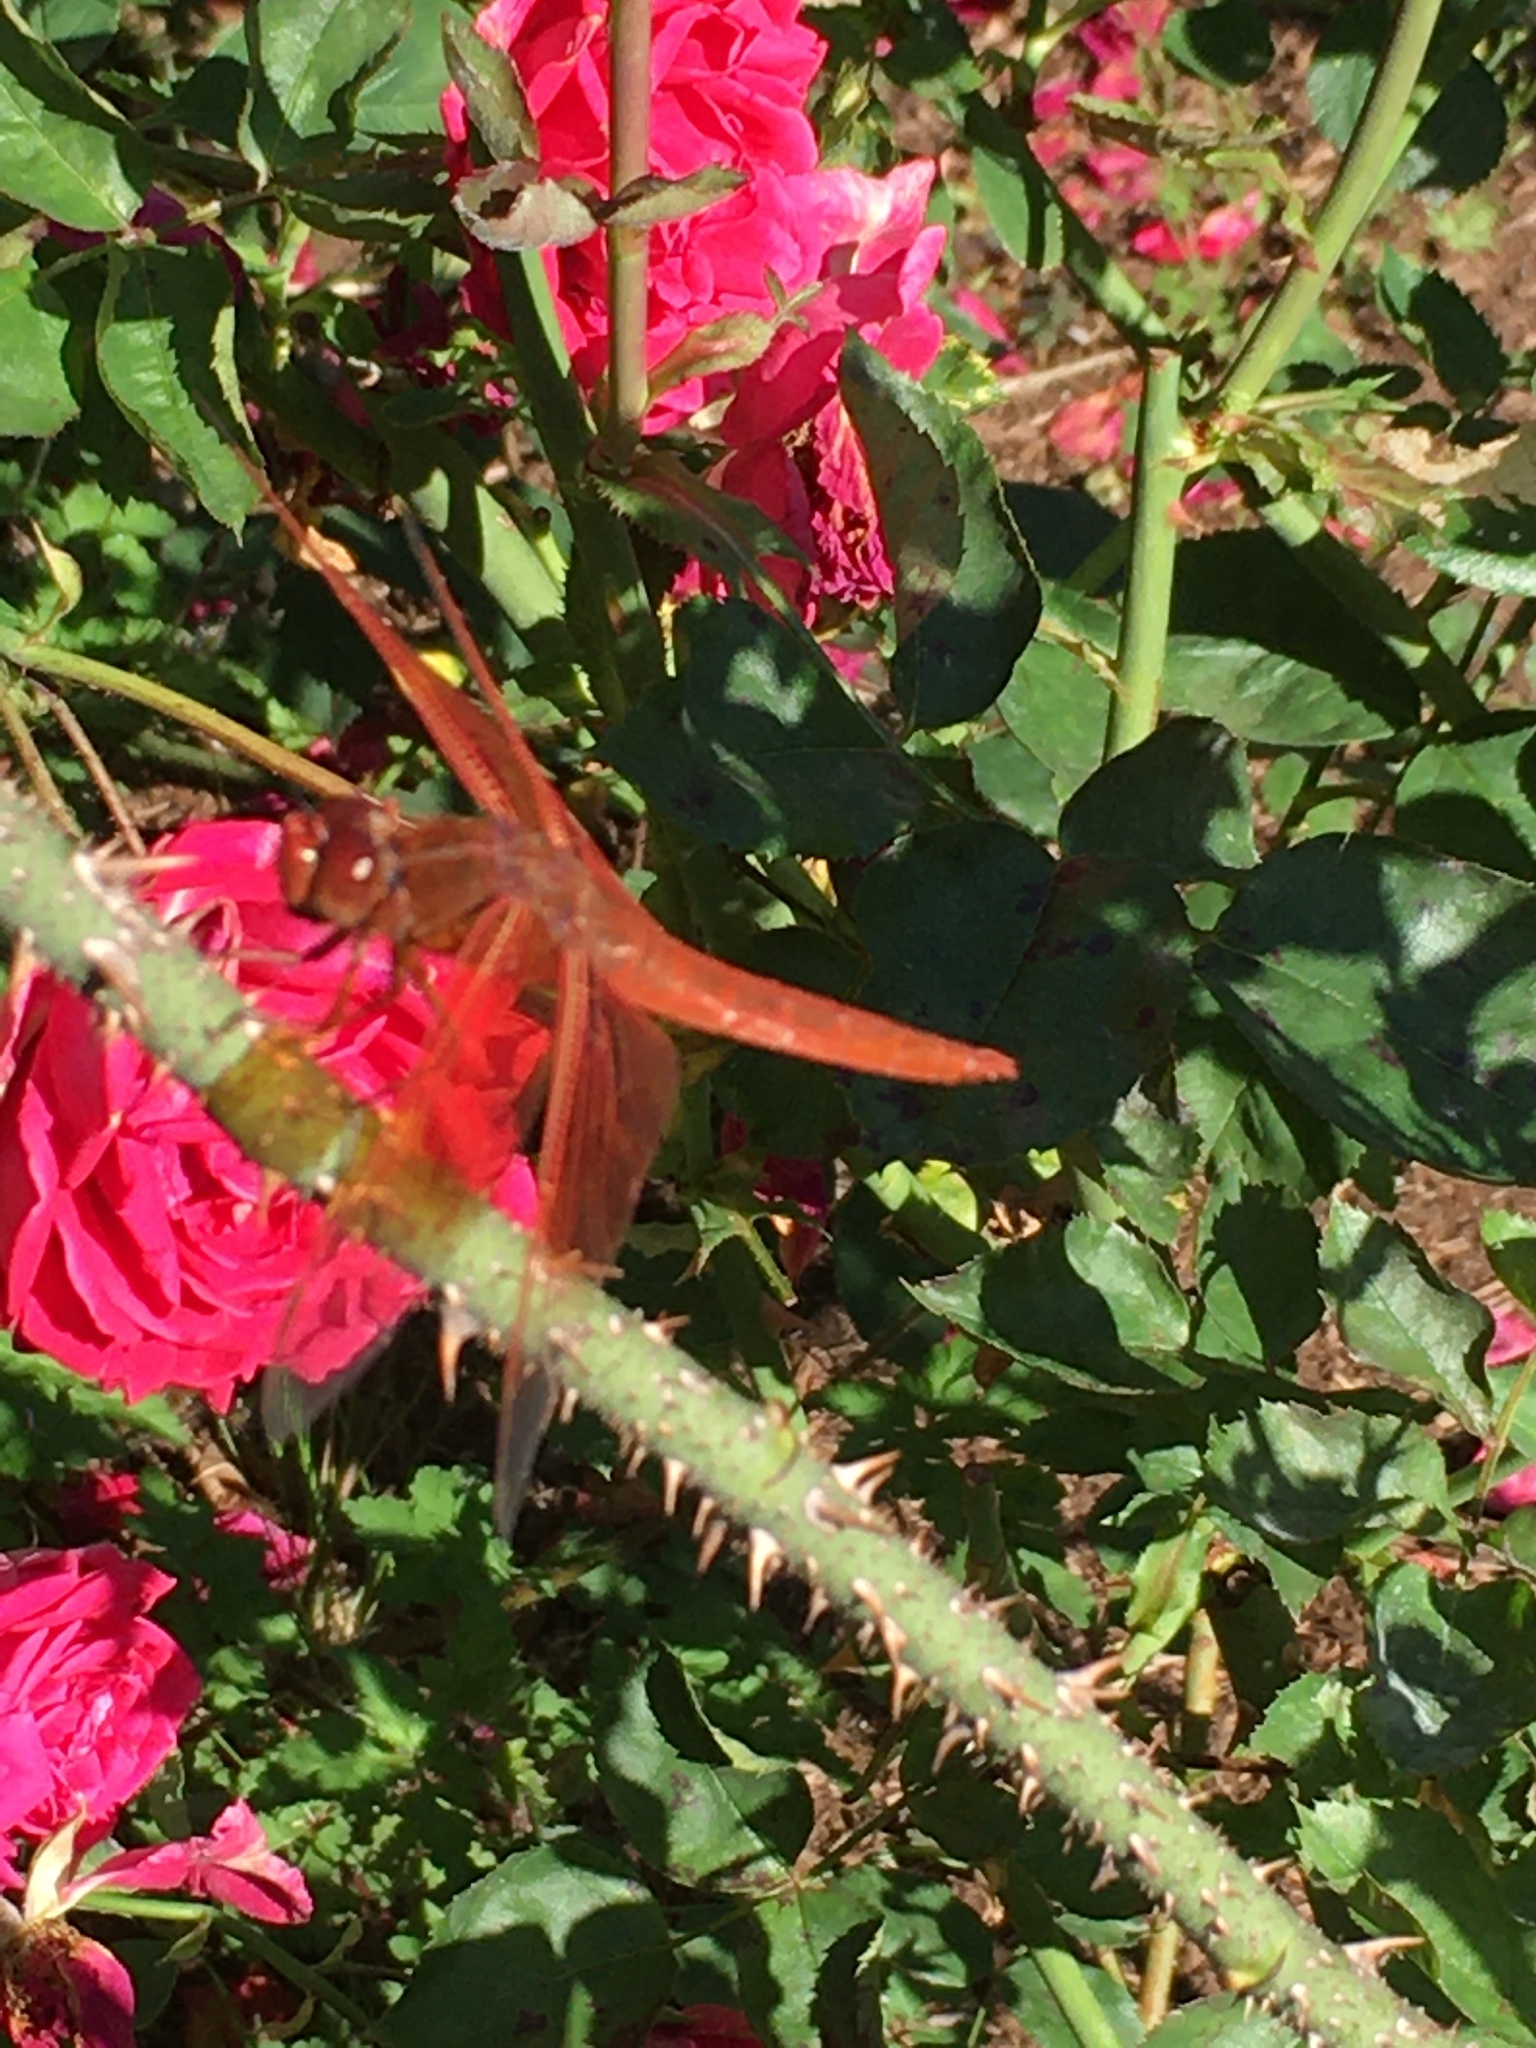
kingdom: Animalia
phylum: Arthropoda
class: Insecta
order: Odonata
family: Libellulidae
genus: Libellula
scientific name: Libellula saturata
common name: Flame skimmer
